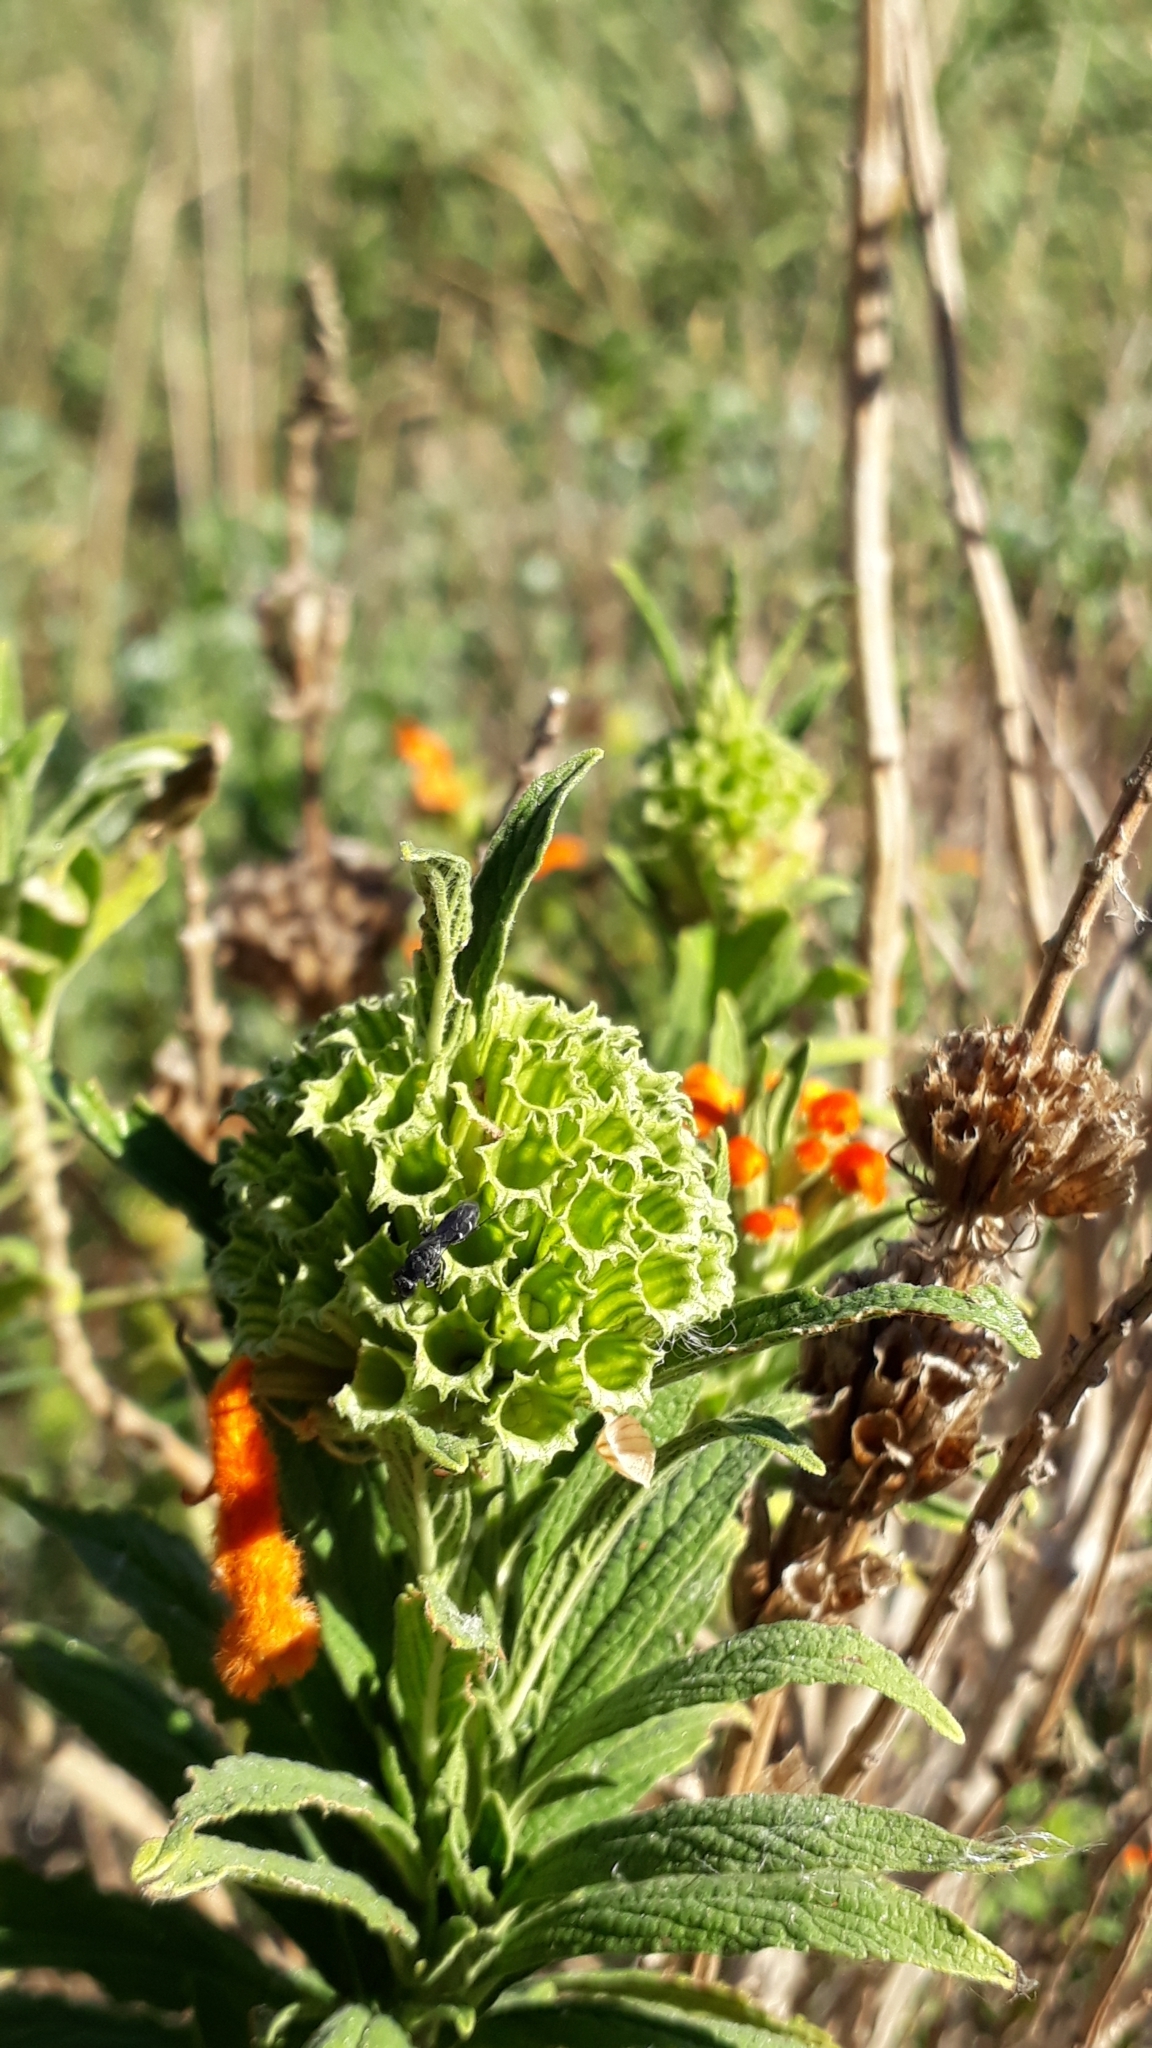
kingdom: Plantae
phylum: Tracheophyta
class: Magnoliopsida
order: Lamiales
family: Lamiaceae
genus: Leonotis
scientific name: Leonotis leonurus
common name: Lion's ear
